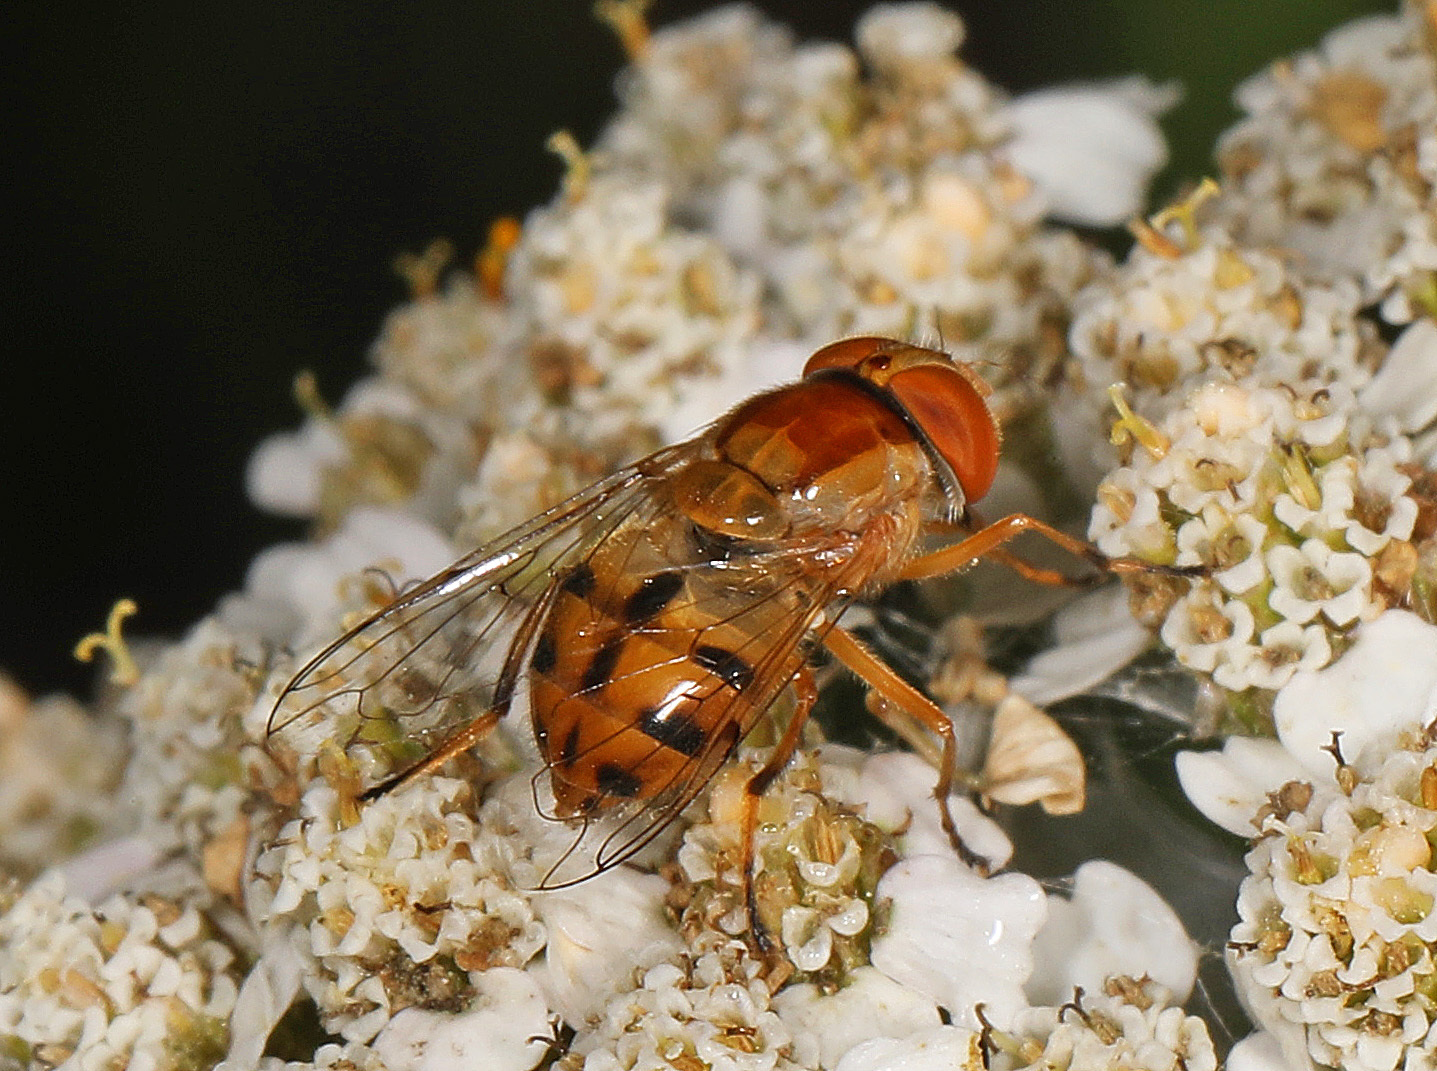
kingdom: Animalia
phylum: Arthropoda
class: Insecta
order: Diptera
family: Syrphidae
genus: Copestylum
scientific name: Copestylum sexmaculatum
